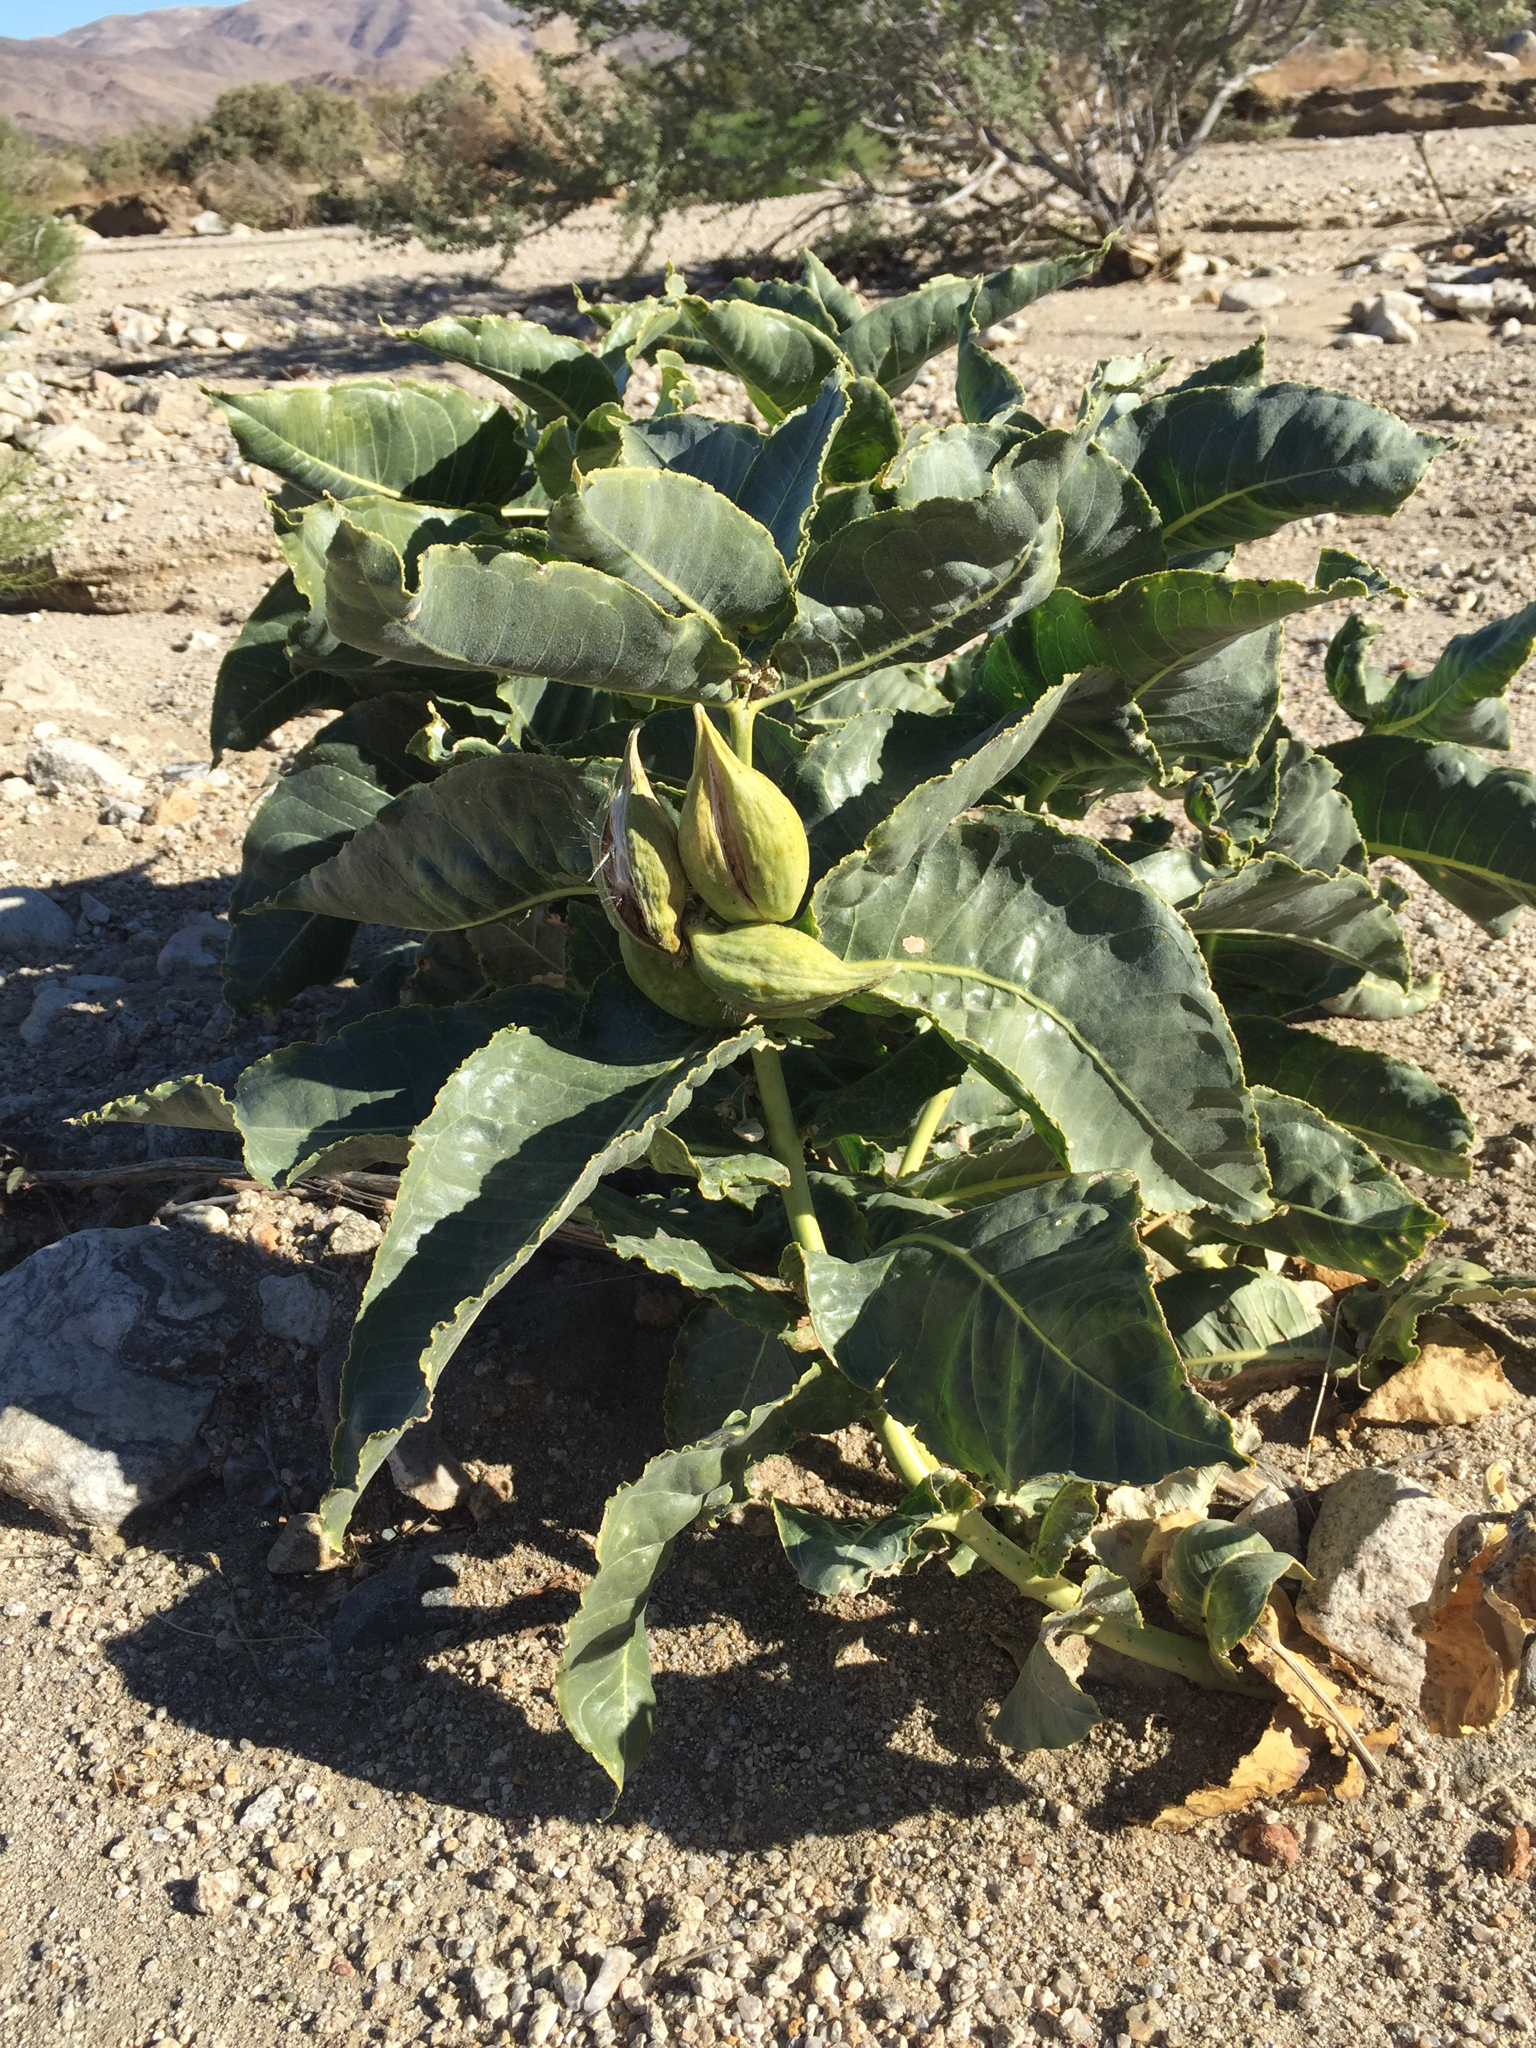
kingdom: Plantae
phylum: Tracheophyta
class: Magnoliopsida
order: Gentianales
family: Apocynaceae
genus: Asclepias
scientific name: Asclepias erosa
